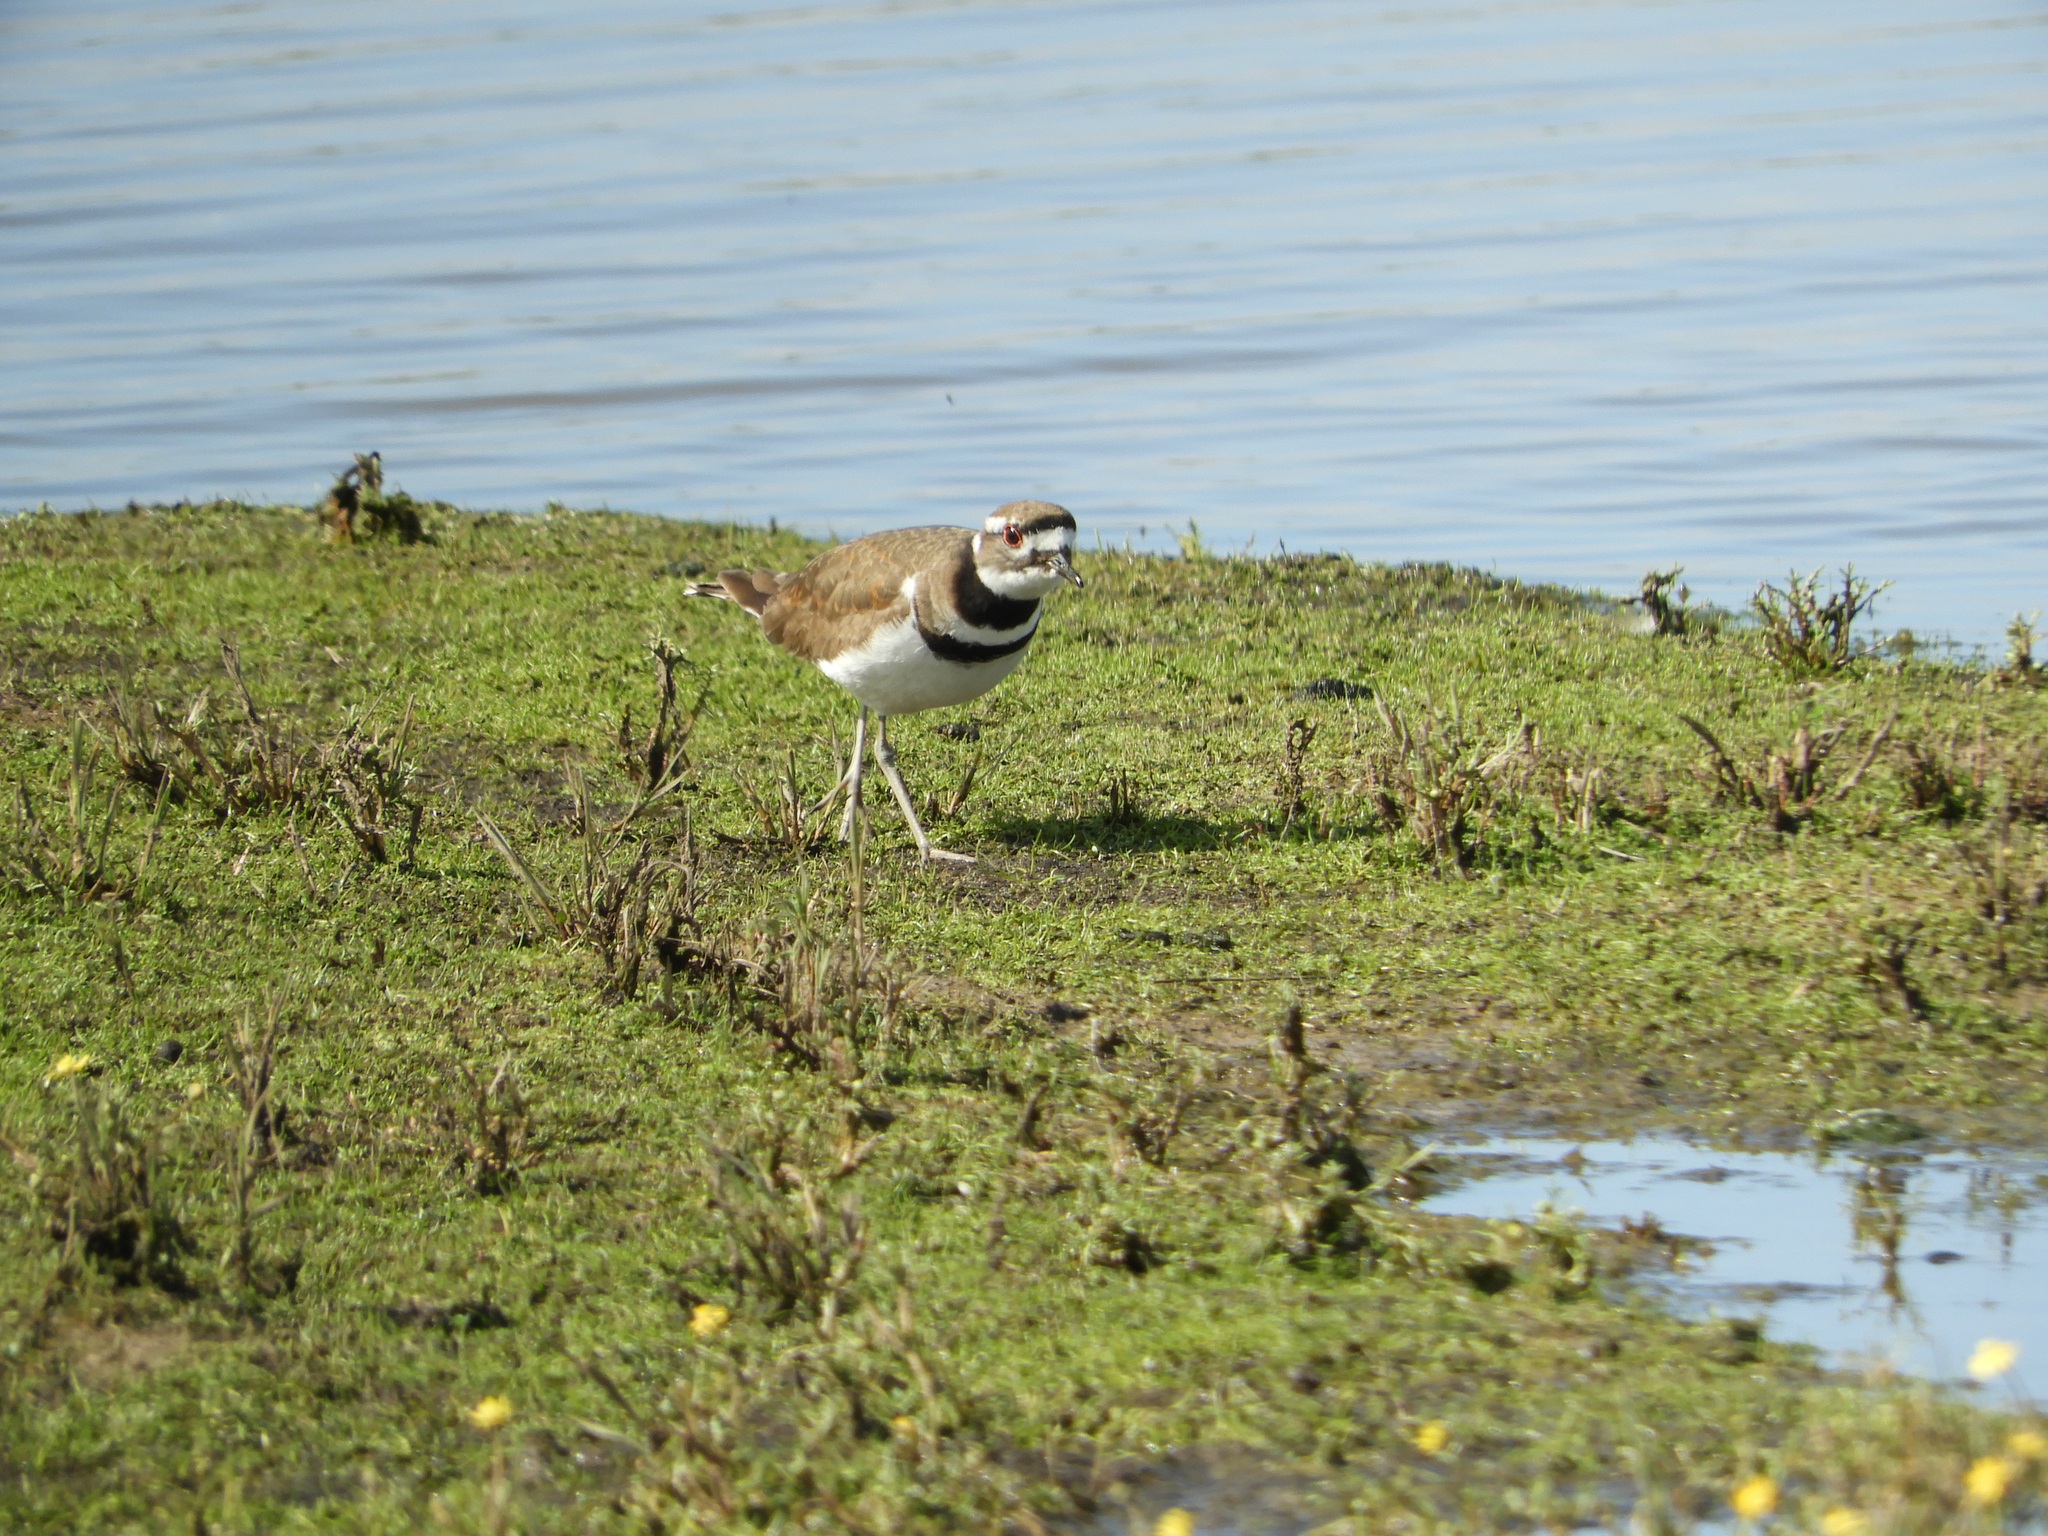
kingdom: Animalia
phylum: Chordata
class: Aves
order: Charadriiformes
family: Charadriidae
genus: Charadrius
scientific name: Charadrius vociferus
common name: Killdeer
